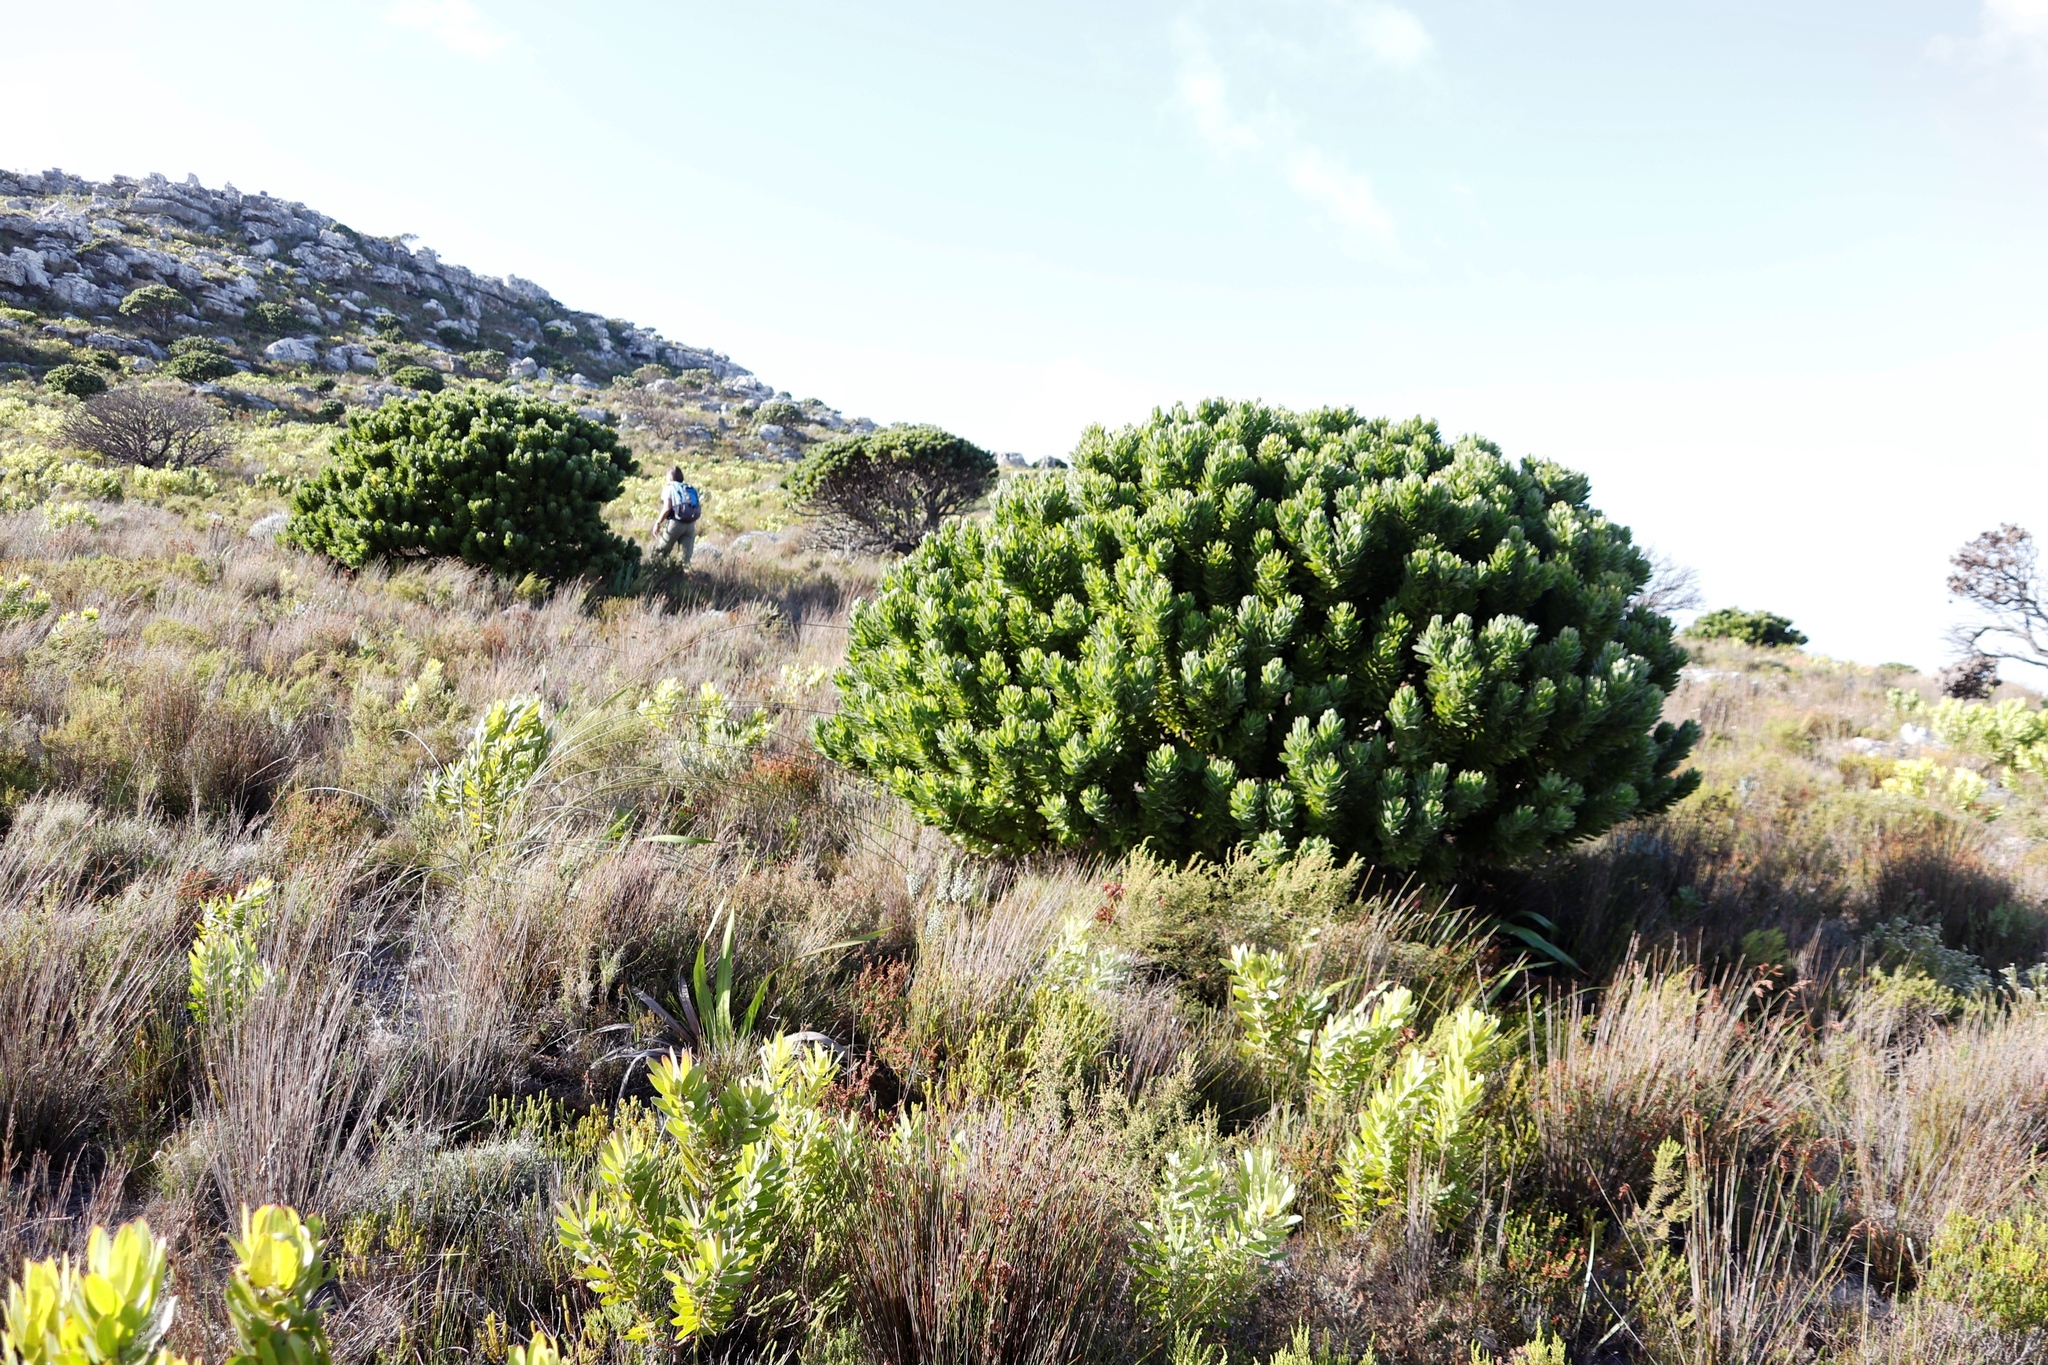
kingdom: Plantae
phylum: Tracheophyta
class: Magnoliopsida
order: Proteales
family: Proteaceae
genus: Leucospermum
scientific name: Leucospermum conocarpodendron
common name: Tree pincushion
